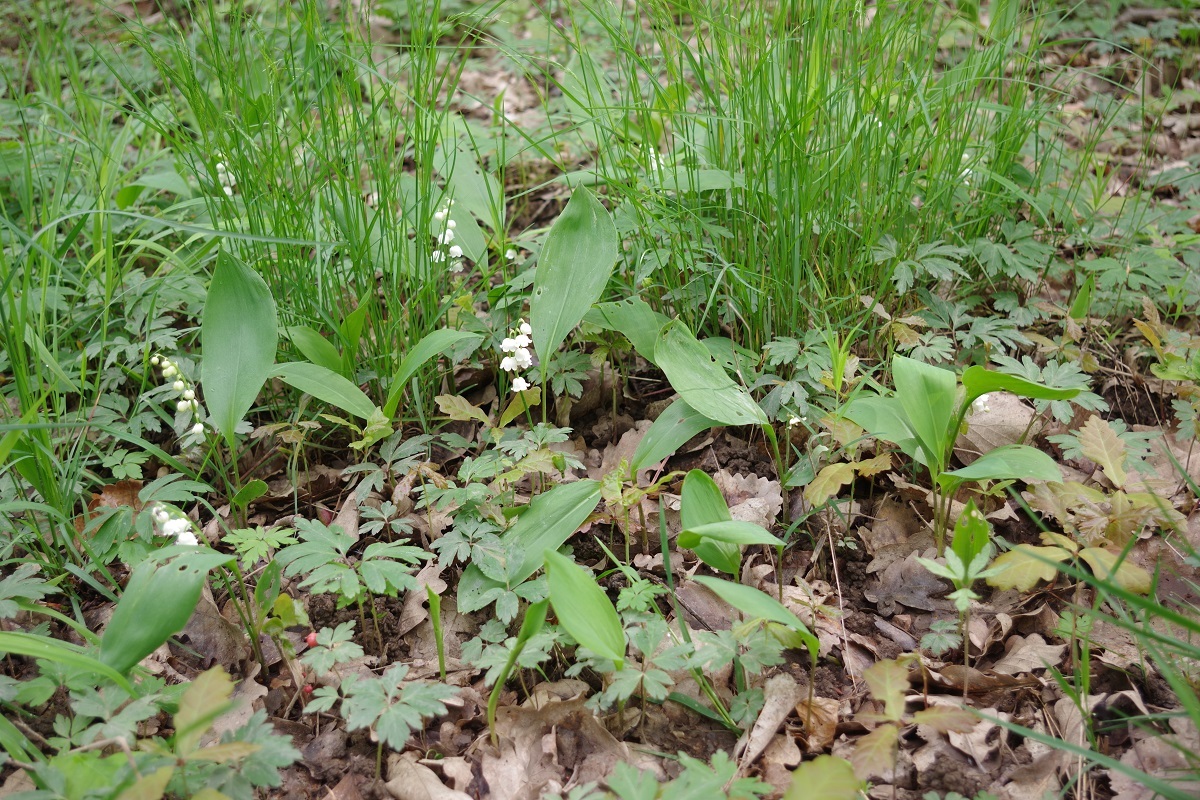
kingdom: Plantae
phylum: Tracheophyta
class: Liliopsida
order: Asparagales
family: Asparagaceae
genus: Convallaria
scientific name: Convallaria majalis
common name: Lily-of-the-valley
